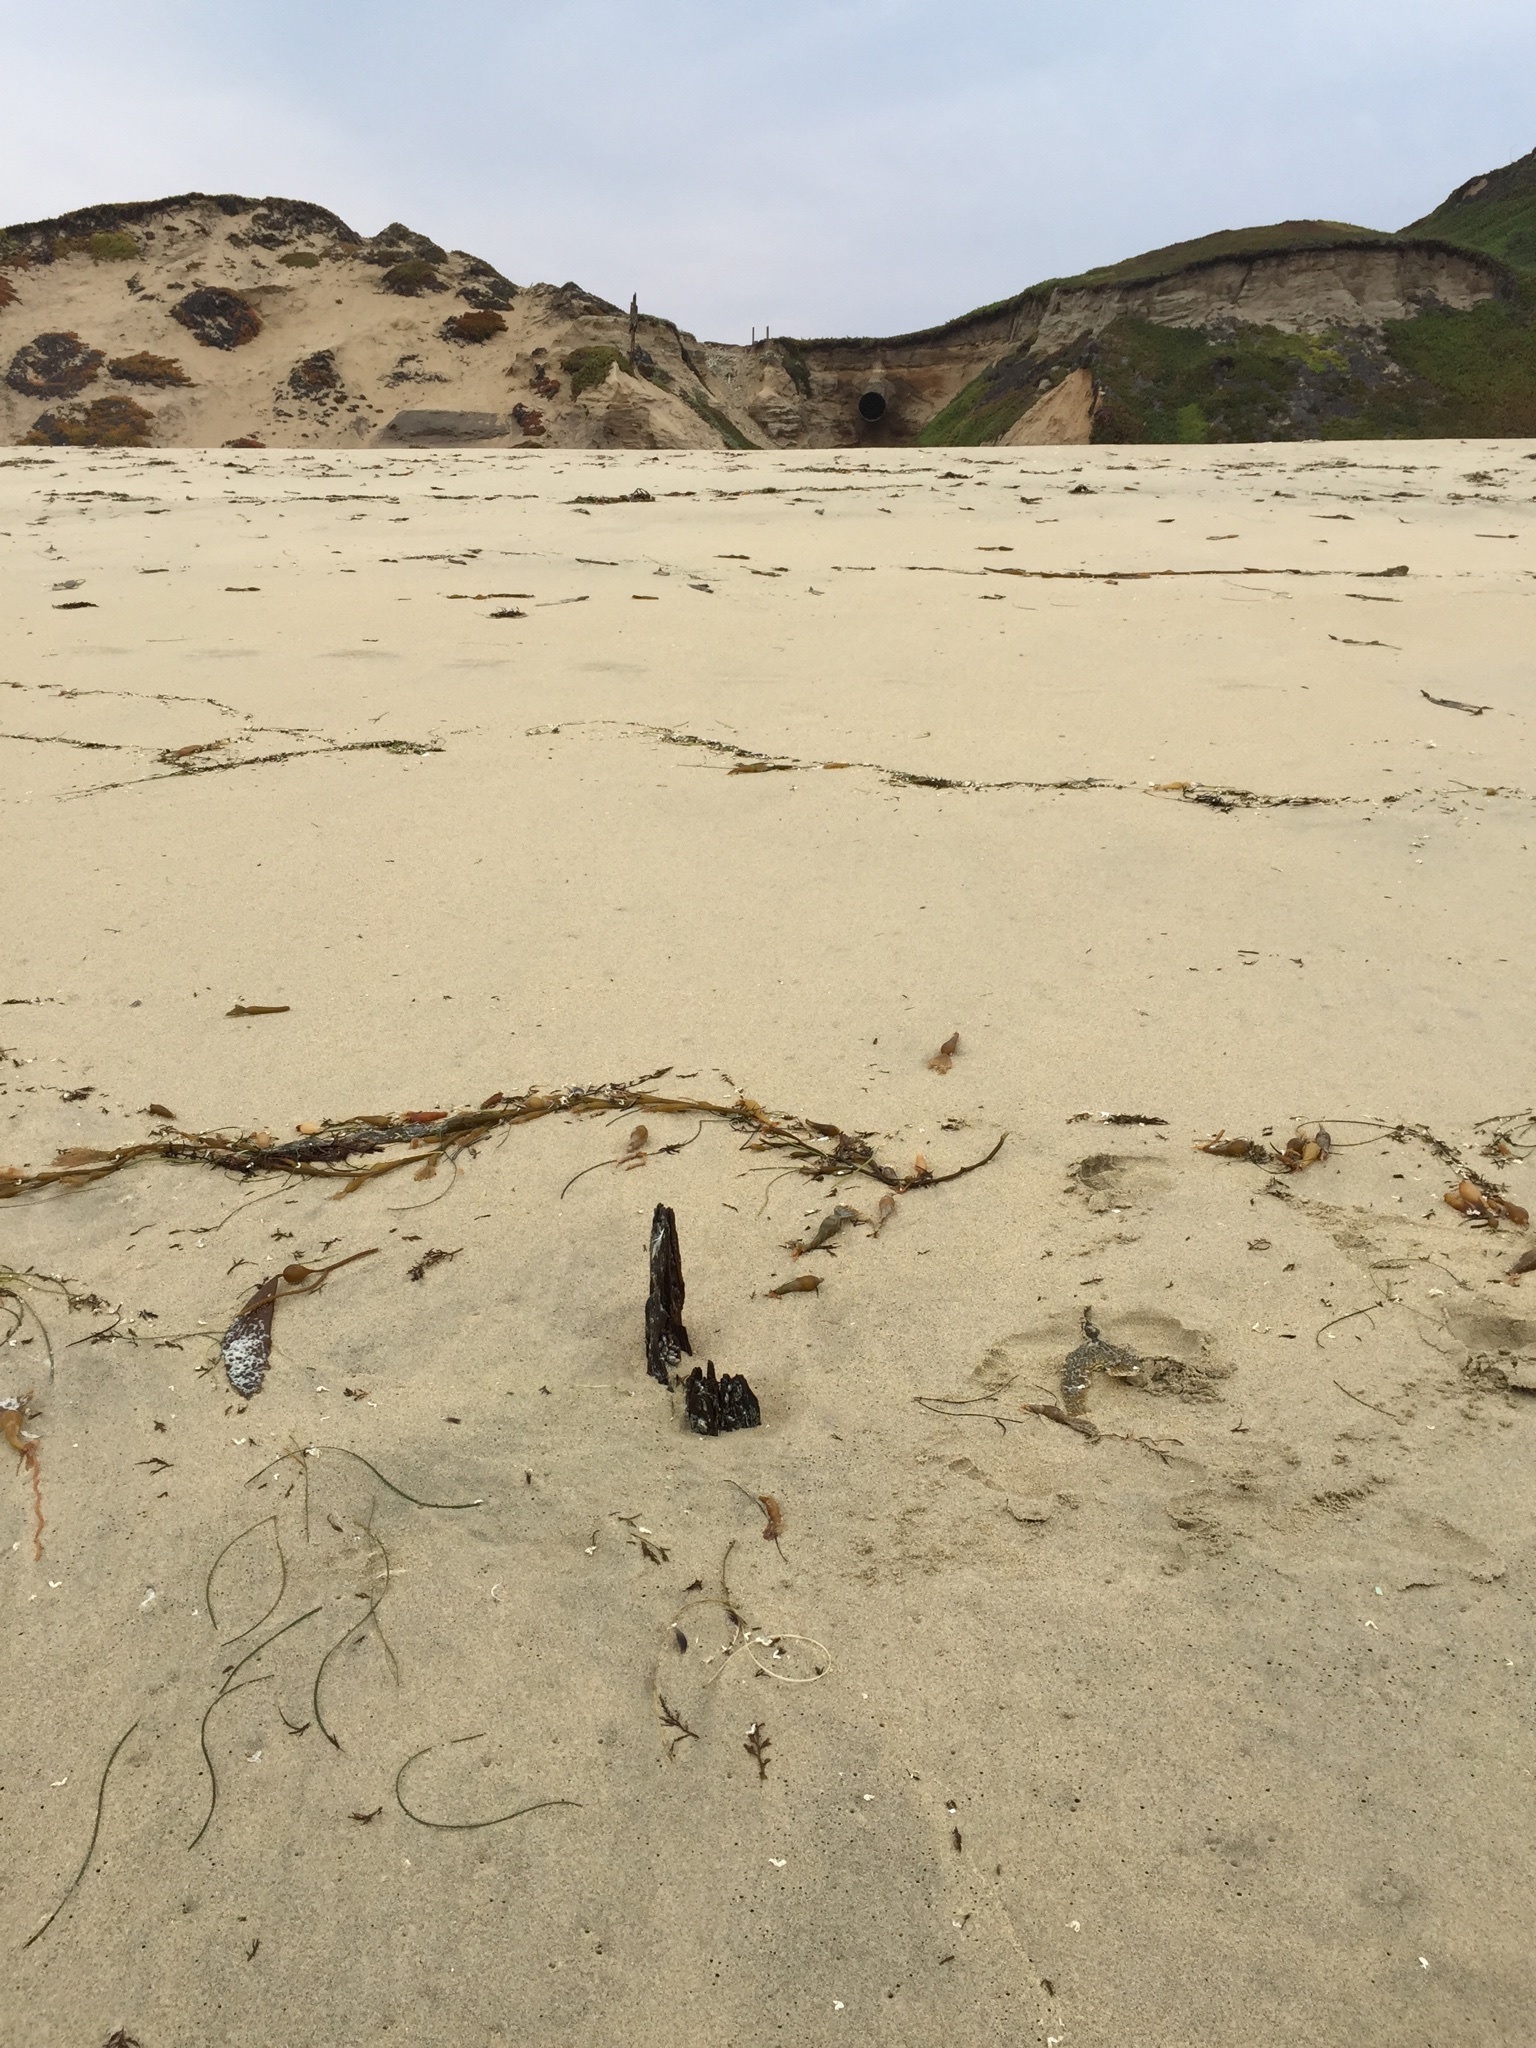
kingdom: Animalia
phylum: Arthropoda
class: Maxillopoda
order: Pedunculata
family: Pollicipedidae
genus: Pollicipes
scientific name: Pollicipes polymerus
